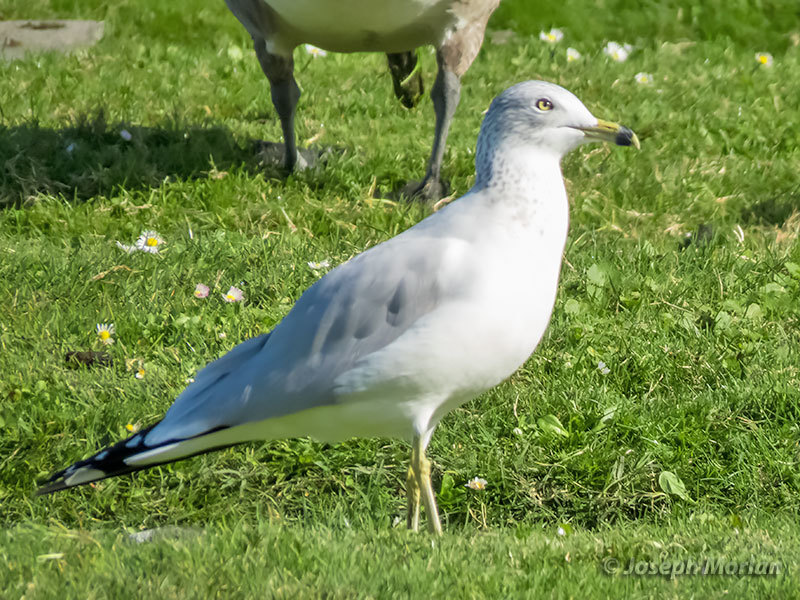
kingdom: Animalia
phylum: Chordata
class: Aves
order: Charadriiformes
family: Laridae
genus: Larus
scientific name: Larus delawarensis
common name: Ring-billed gull
